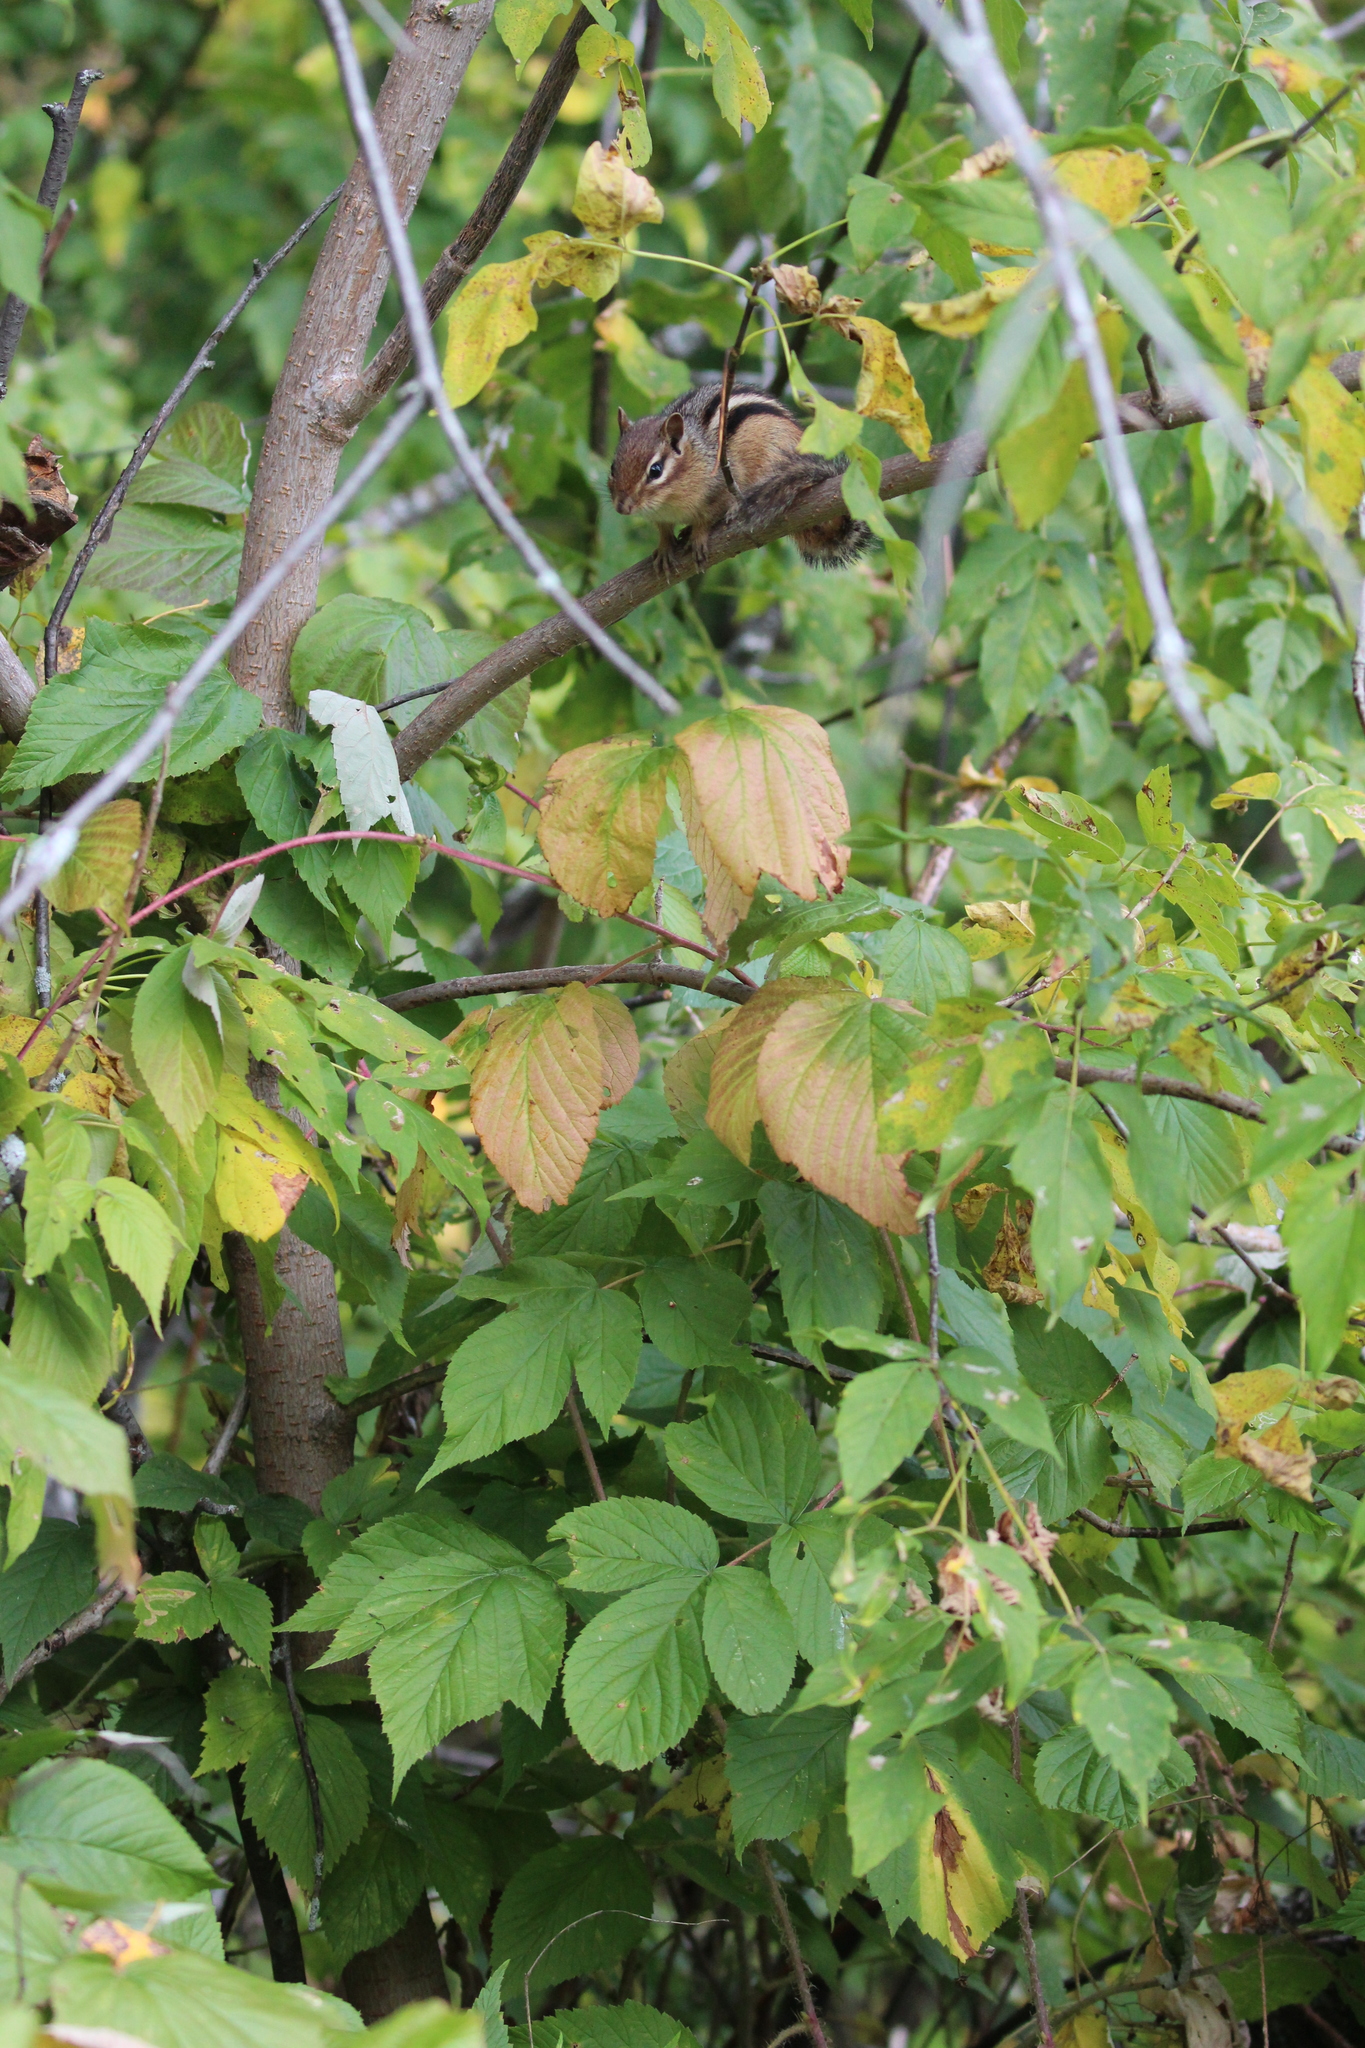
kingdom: Animalia
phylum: Chordata
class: Mammalia
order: Rodentia
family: Sciuridae
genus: Tamias
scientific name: Tamias striatus
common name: Eastern chipmunk
